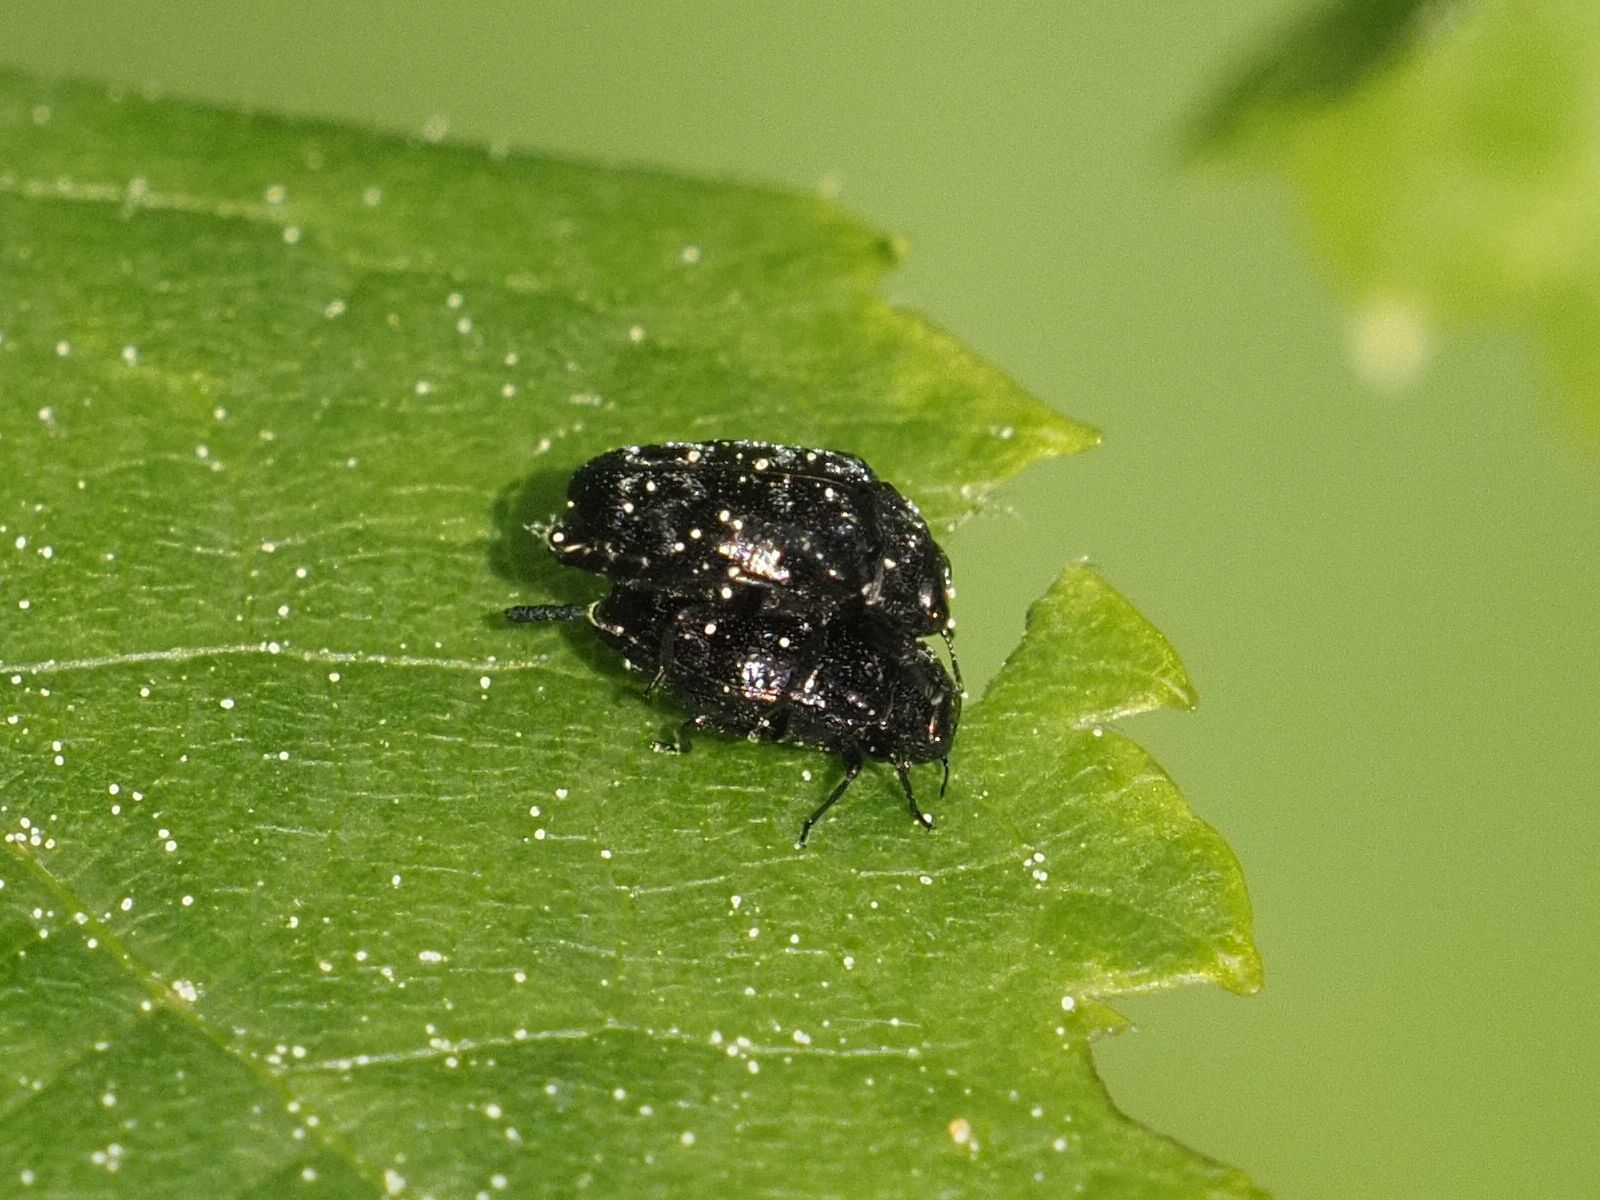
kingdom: Animalia
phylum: Arthropoda
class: Insecta
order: Coleoptera
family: Buprestidae
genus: Trachys
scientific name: Trachys minutus
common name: Metallic wood-boring beetle
